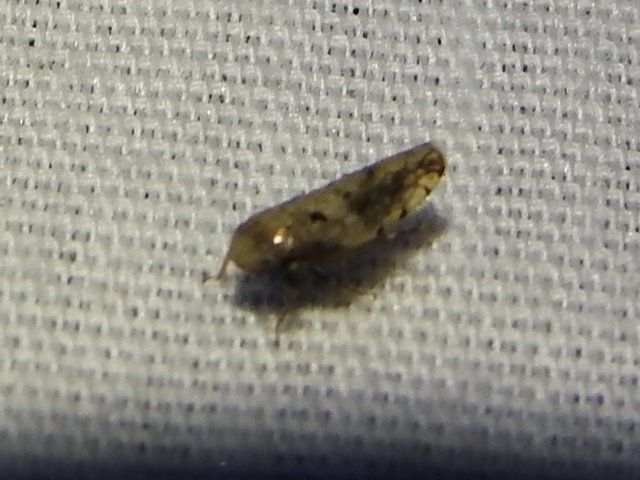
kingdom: Animalia
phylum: Arthropoda
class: Insecta
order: Hemiptera
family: Cicadellidae
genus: Menosoma
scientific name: Menosoma cinctum
